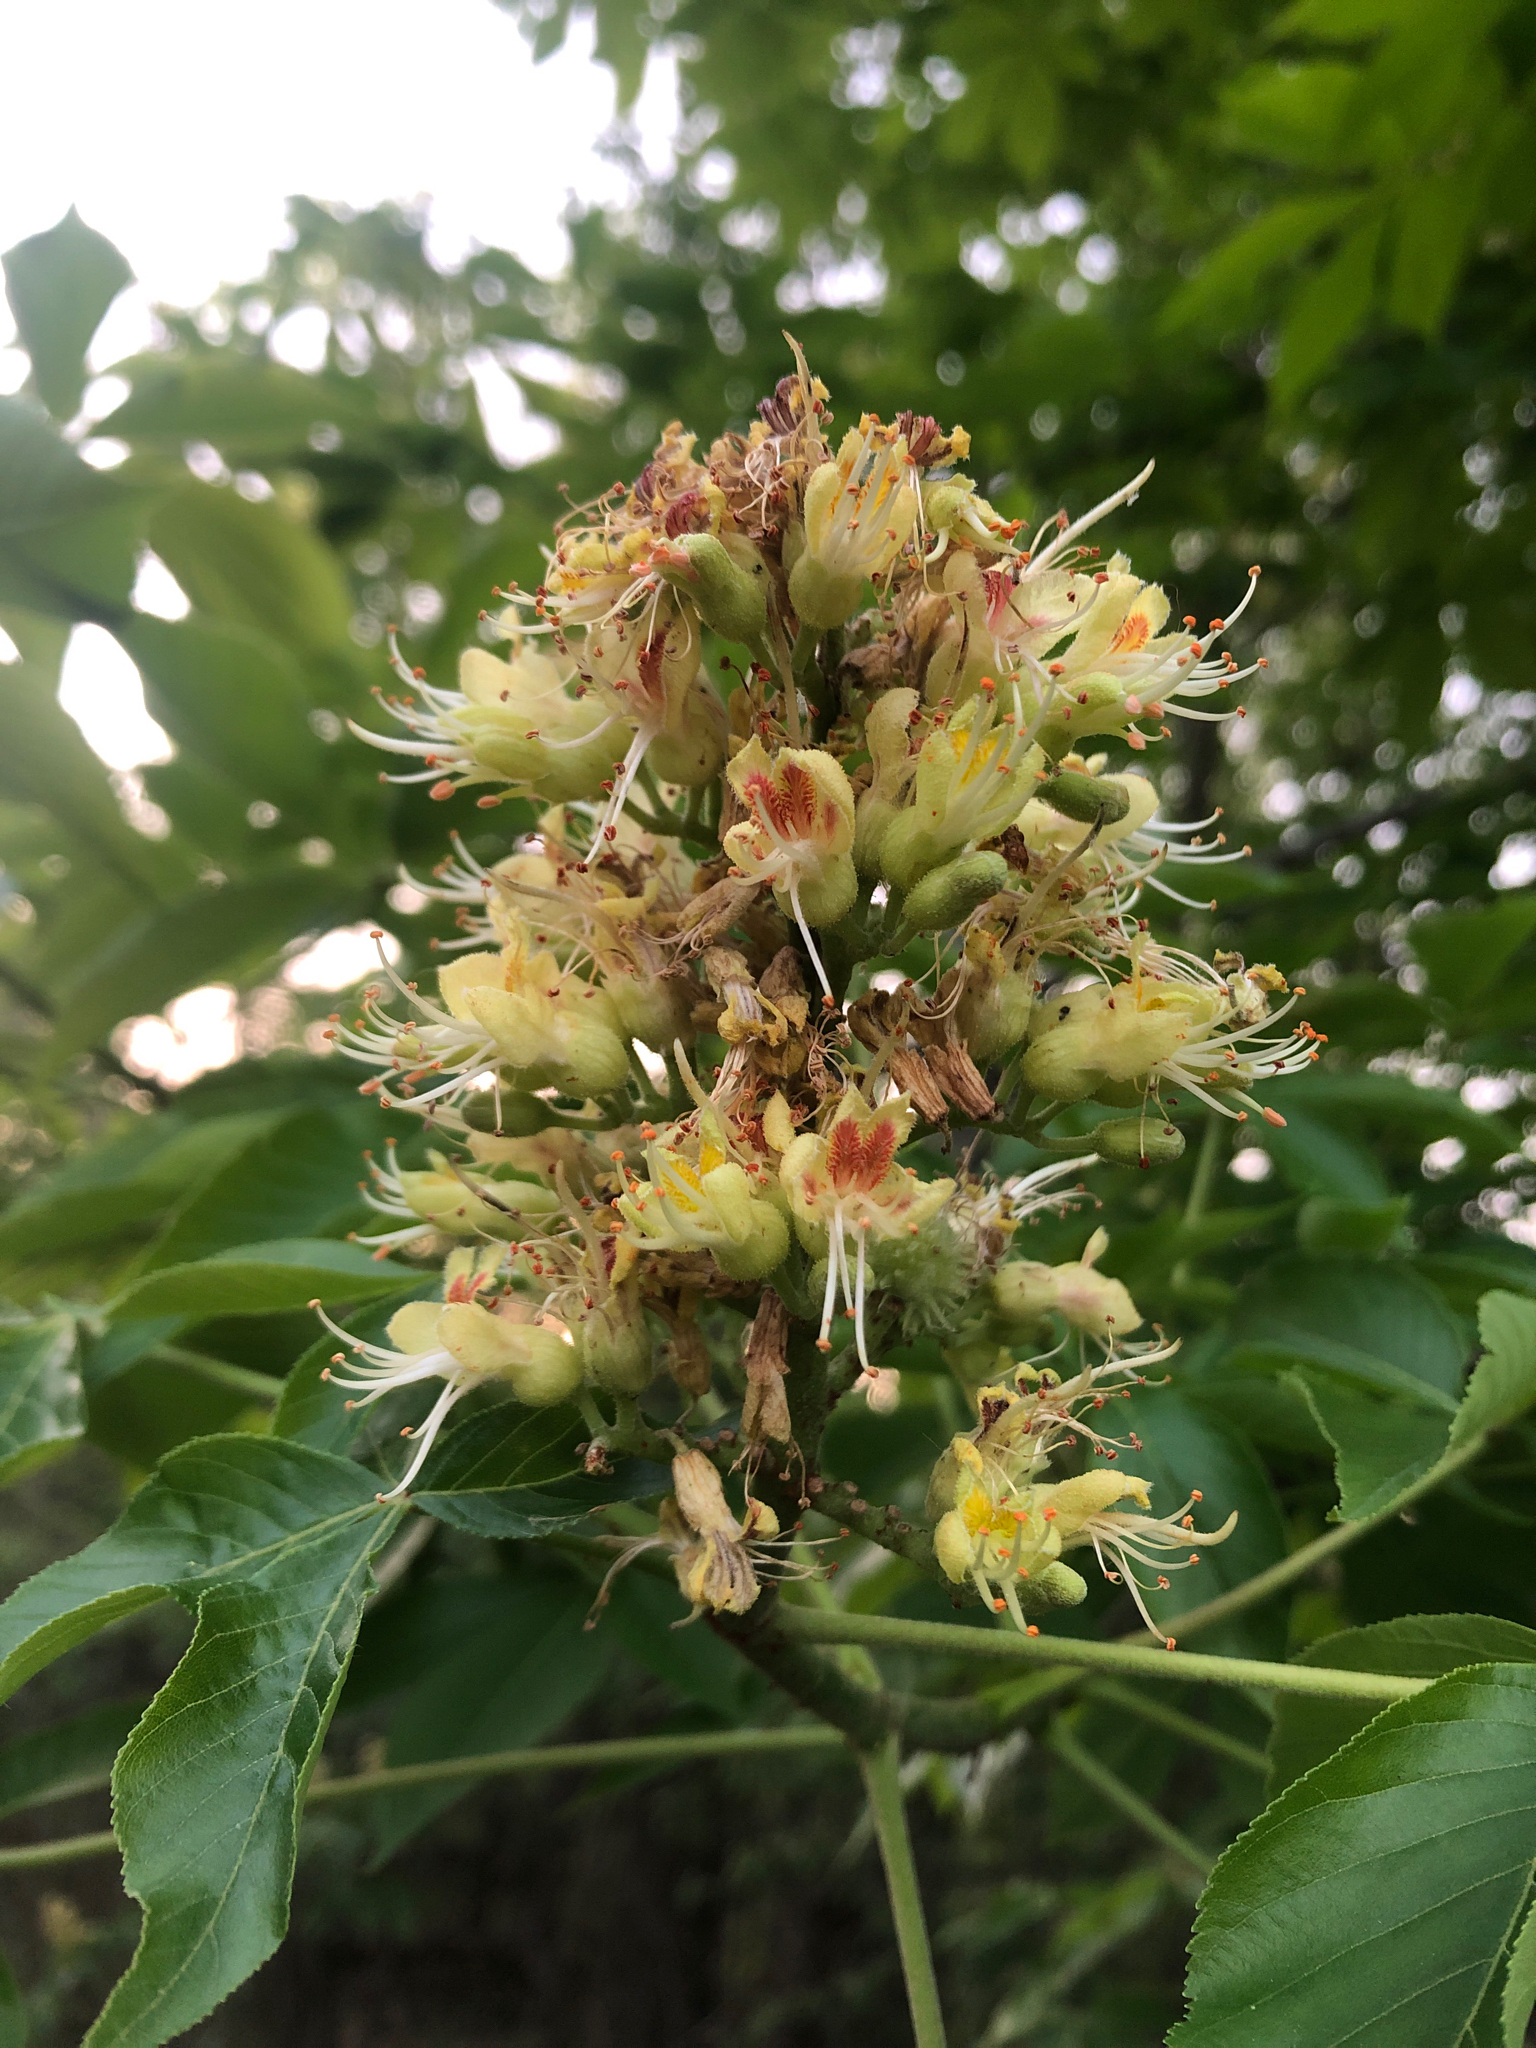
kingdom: Plantae
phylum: Tracheophyta
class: Magnoliopsida
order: Sapindales
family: Sapindaceae
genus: Aesculus
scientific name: Aesculus glabra
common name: Ohio buckeye
